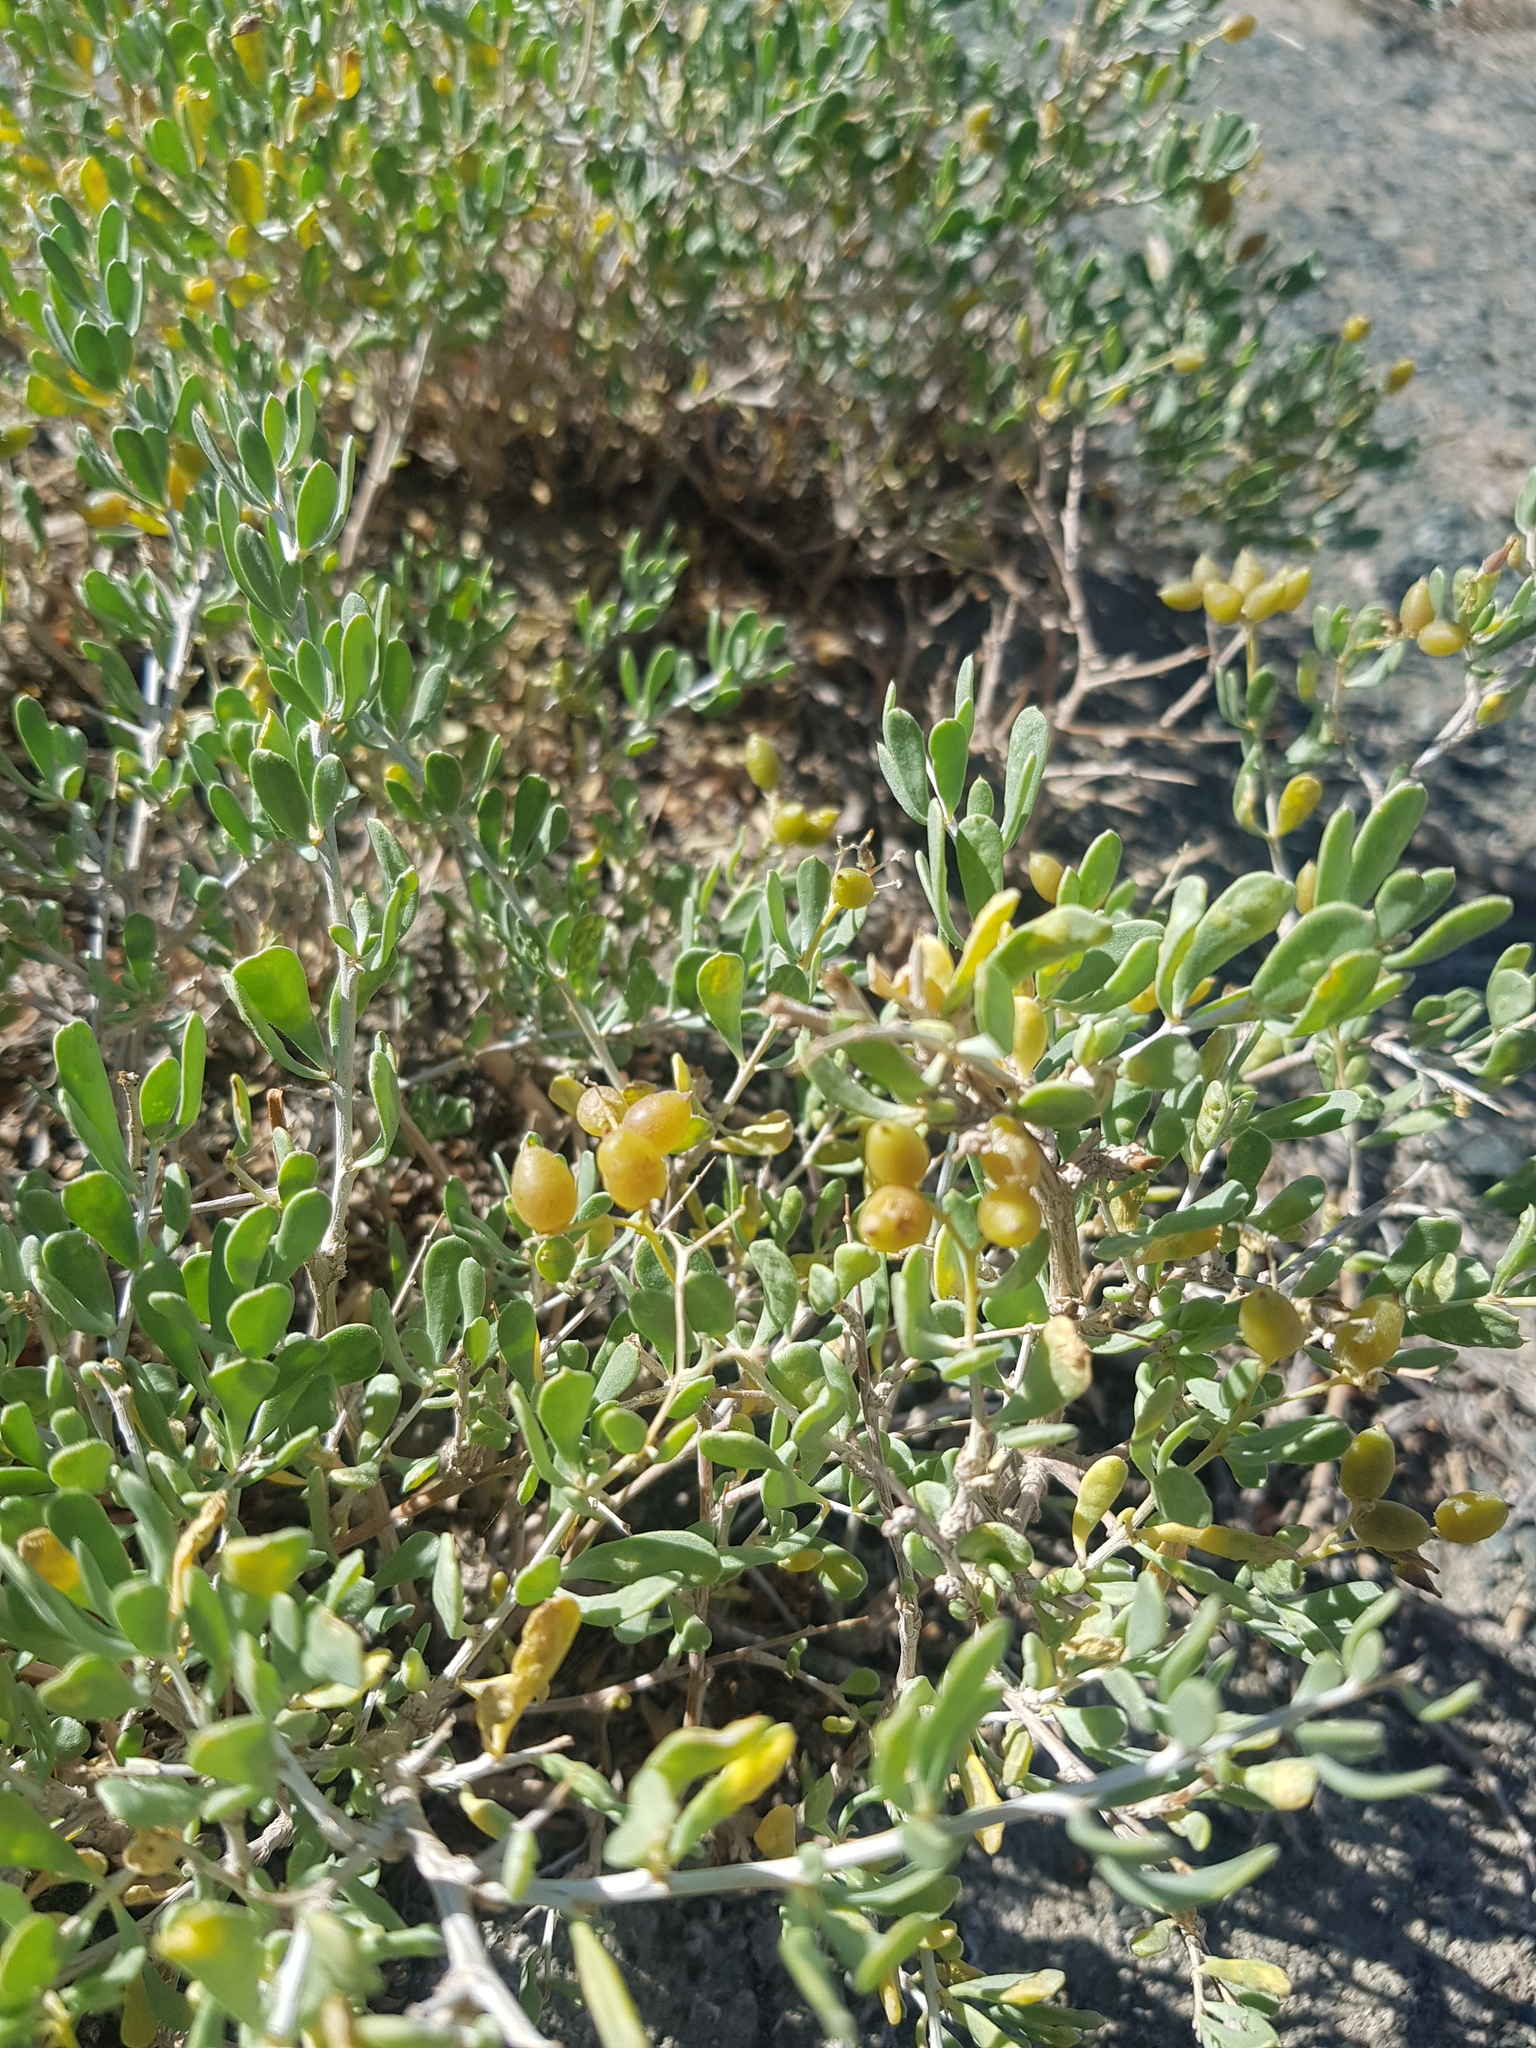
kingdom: Plantae
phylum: Tracheophyta
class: Magnoliopsida
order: Sapindales
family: Nitrariaceae
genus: Nitraria
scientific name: Nitraria sibirica
